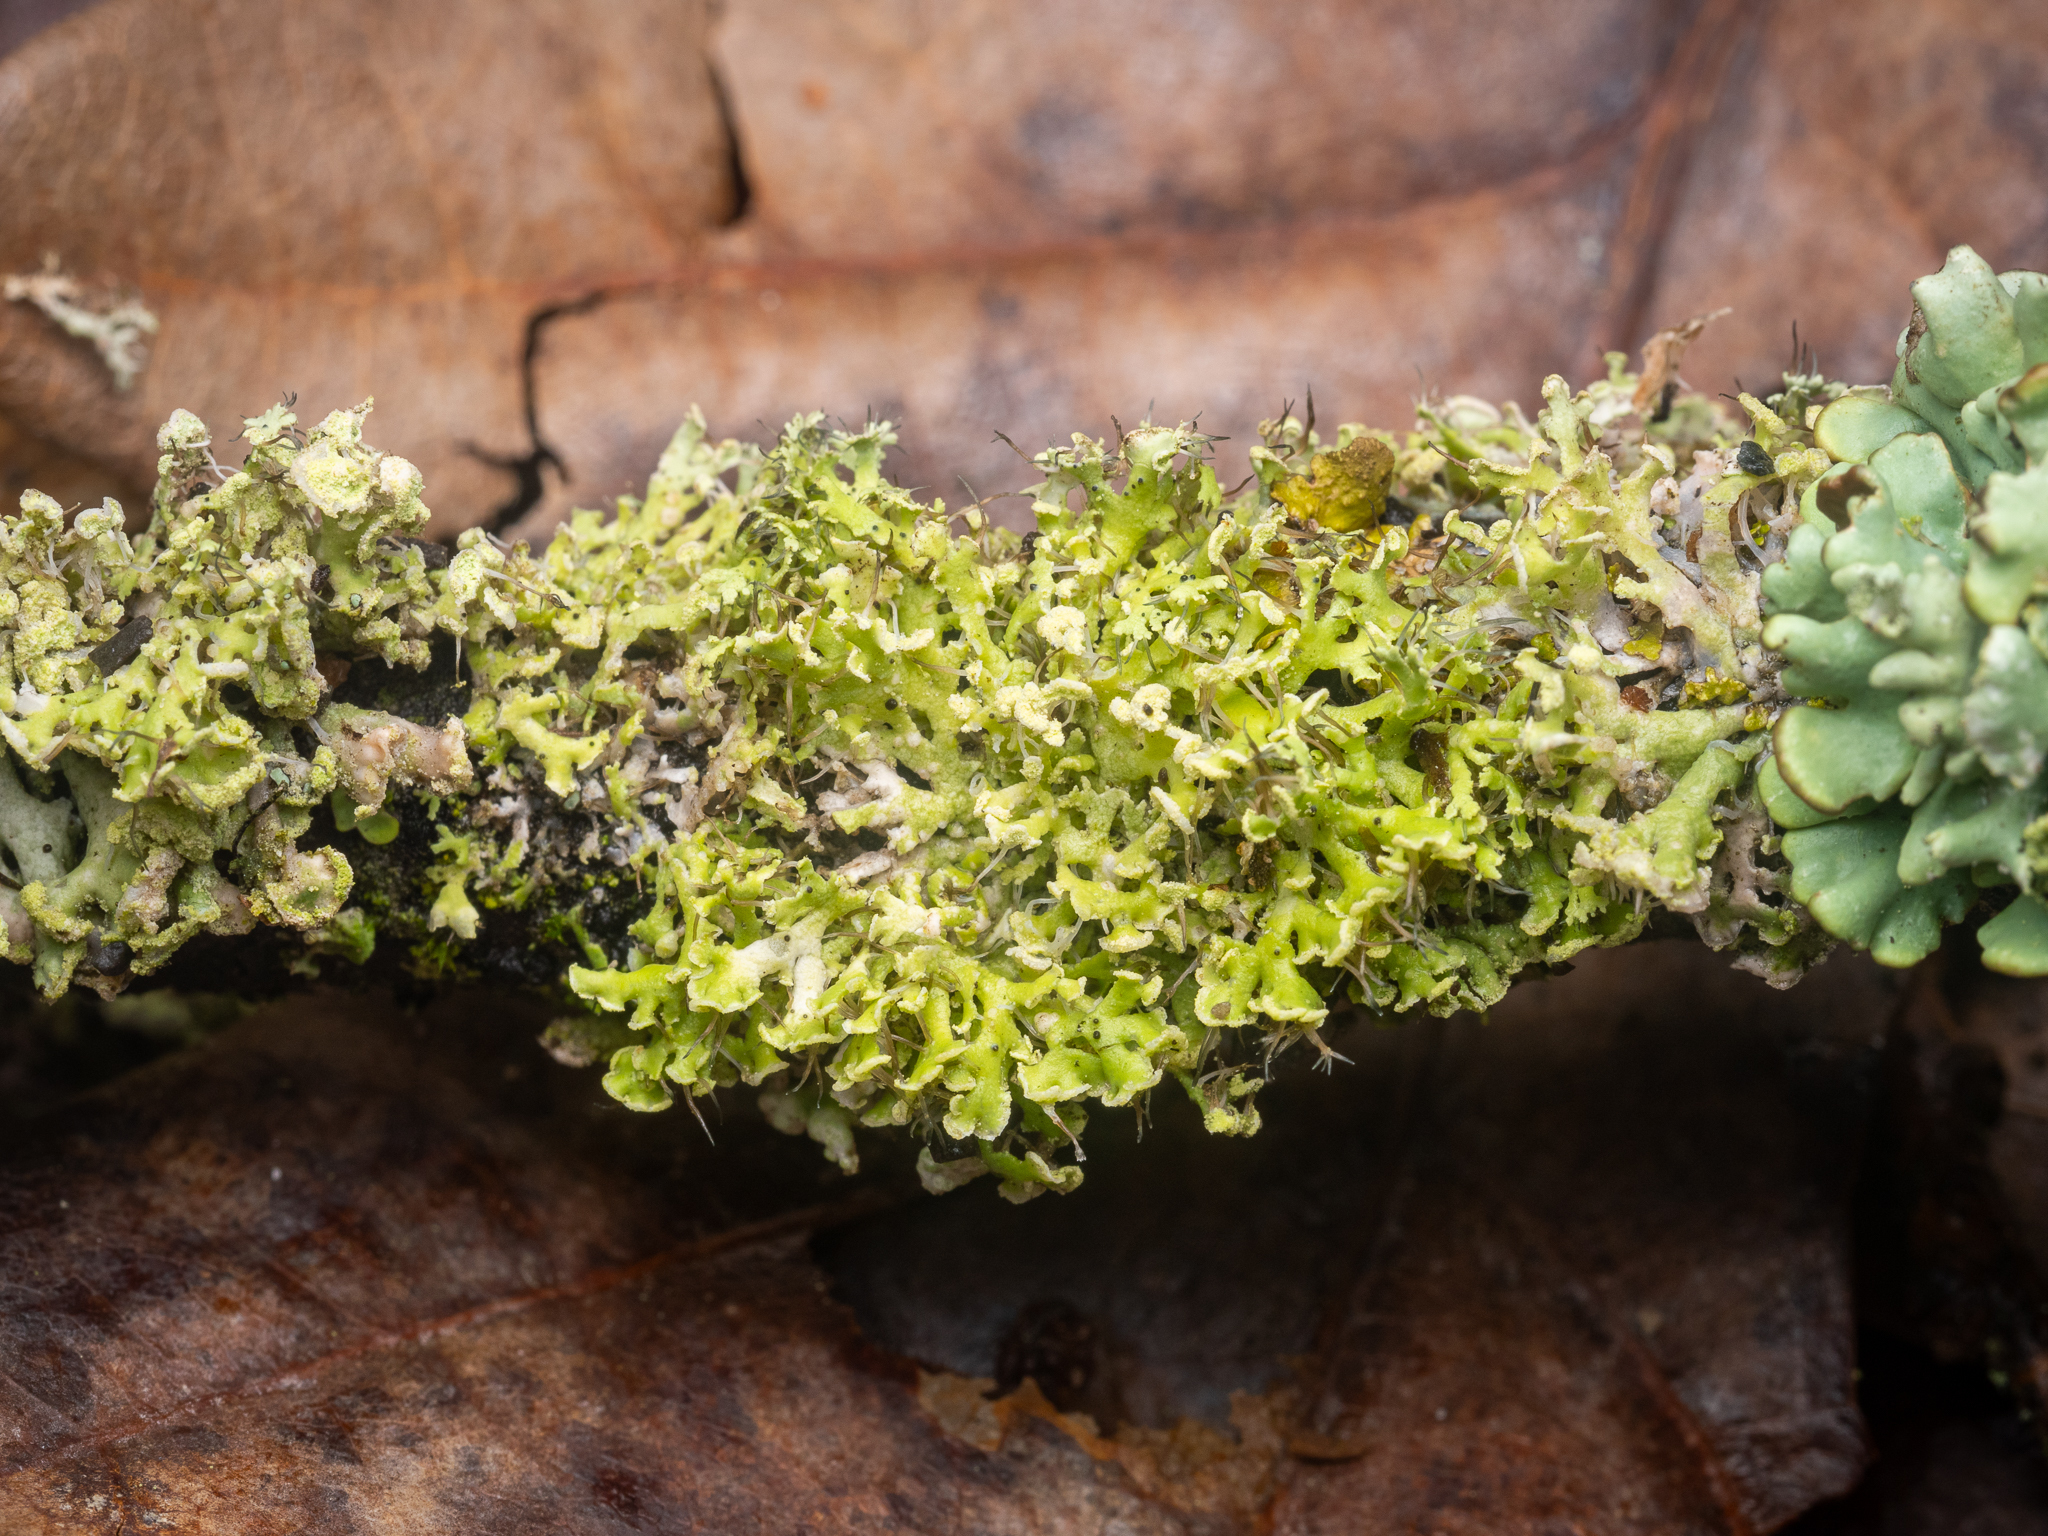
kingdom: Fungi
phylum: Ascomycota
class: Lecanoromycetes
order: Caliciales
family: Physciaceae
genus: Physcia
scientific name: Physcia tenella
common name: Fringed rosette lichen
